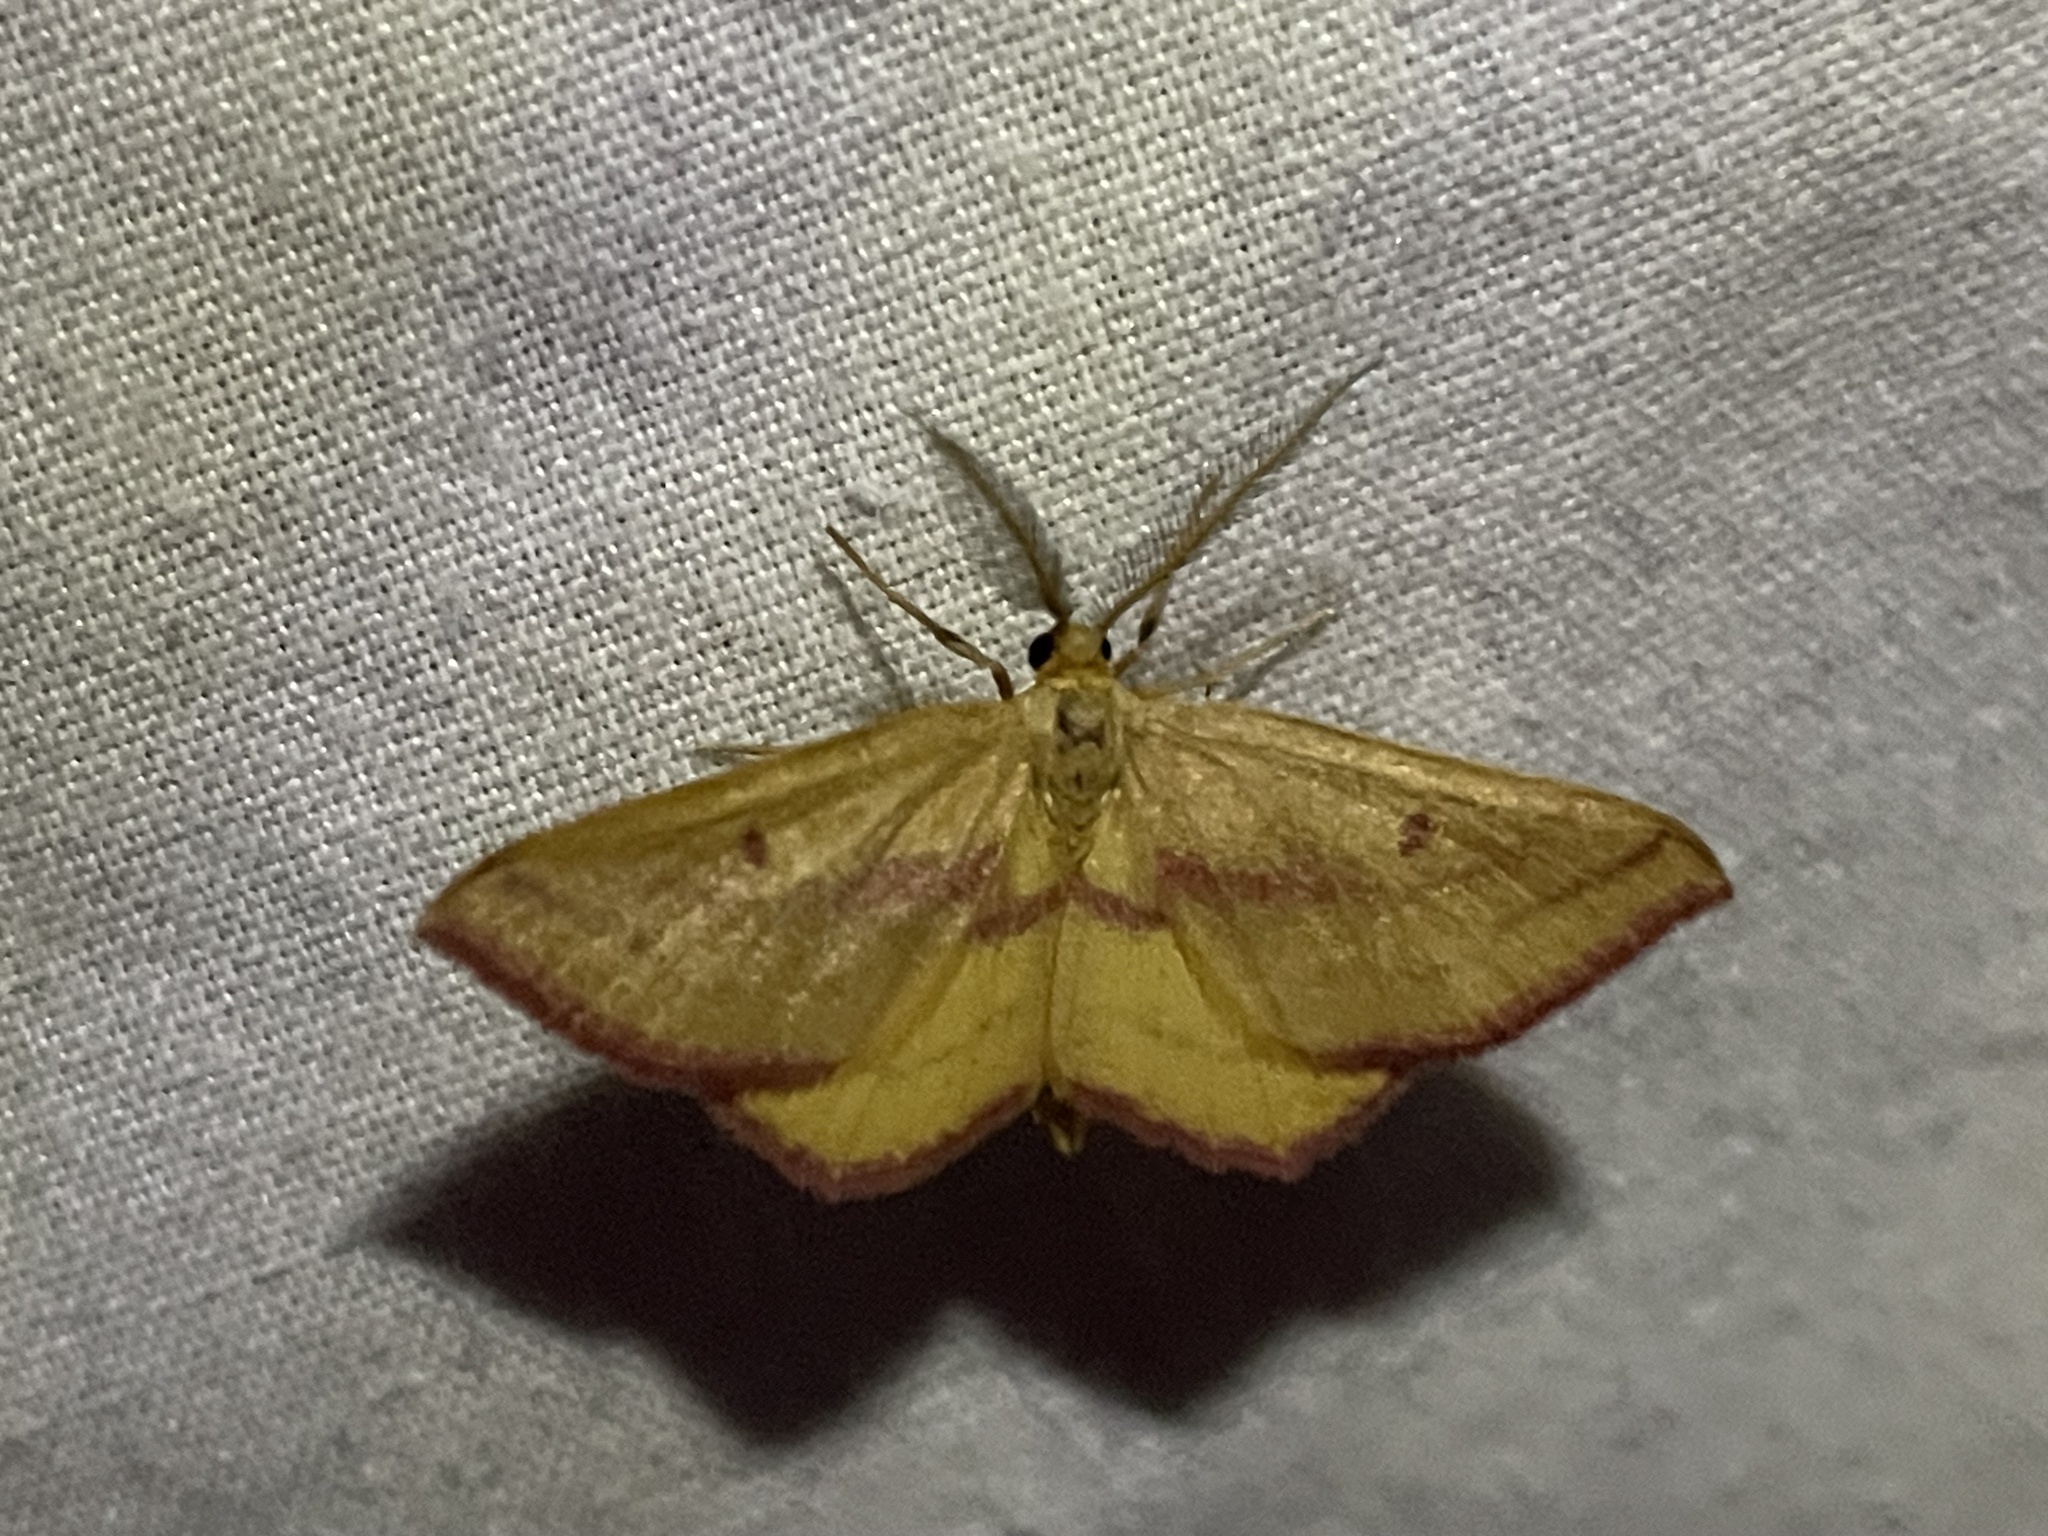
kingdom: Animalia
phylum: Arthropoda
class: Insecta
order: Lepidoptera
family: Geometridae
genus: Haematopis
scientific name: Haematopis grataria
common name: Chickweed geometer
